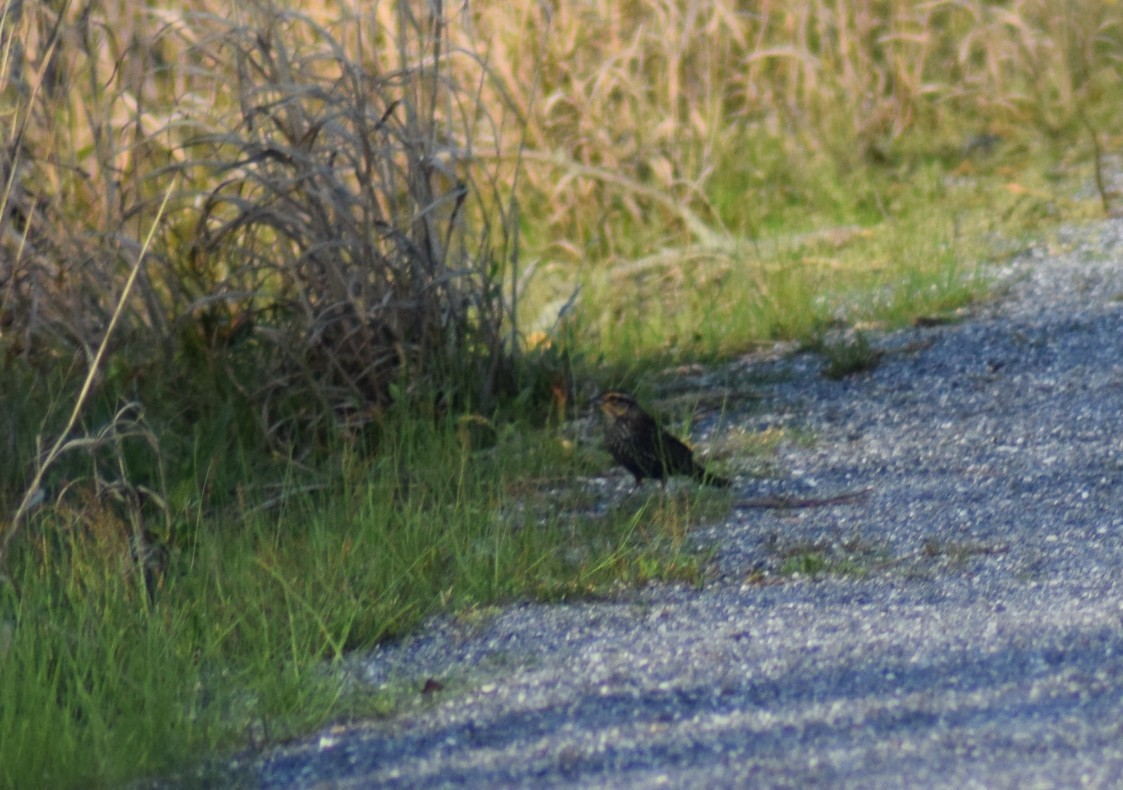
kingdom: Animalia
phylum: Chordata
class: Aves
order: Passeriformes
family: Icteridae
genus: Agelaius
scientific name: Agelaius phoeniceus
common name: Red-winged blackbird
